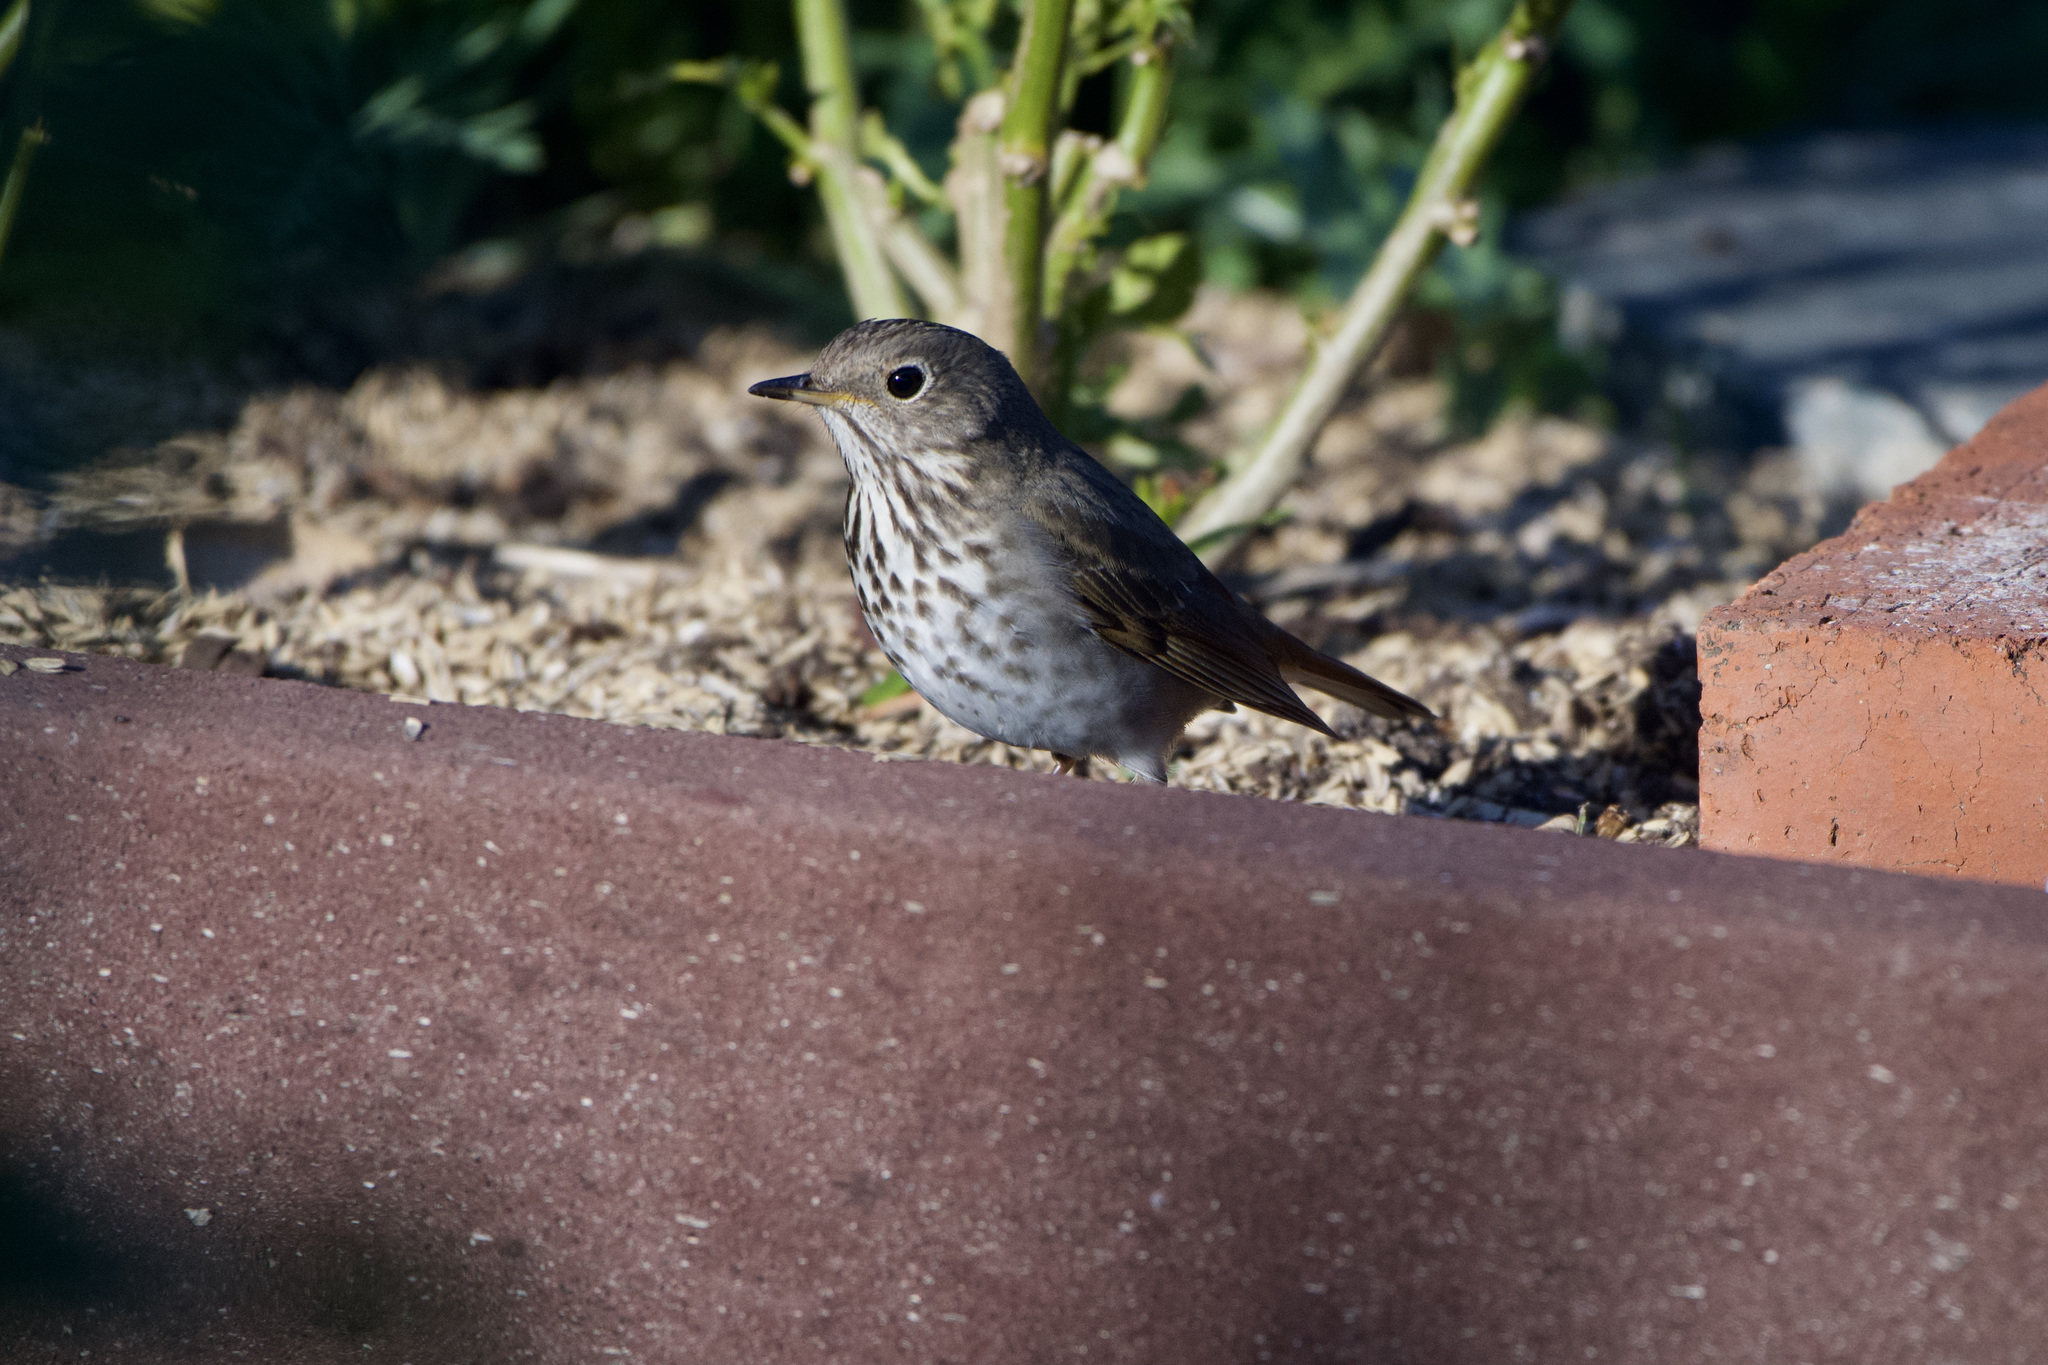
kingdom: Animalia
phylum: Chordata
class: Aves
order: Passeriformes
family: Turdidae
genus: Catharus
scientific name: Catharus guttatus
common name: Hermit thrush
